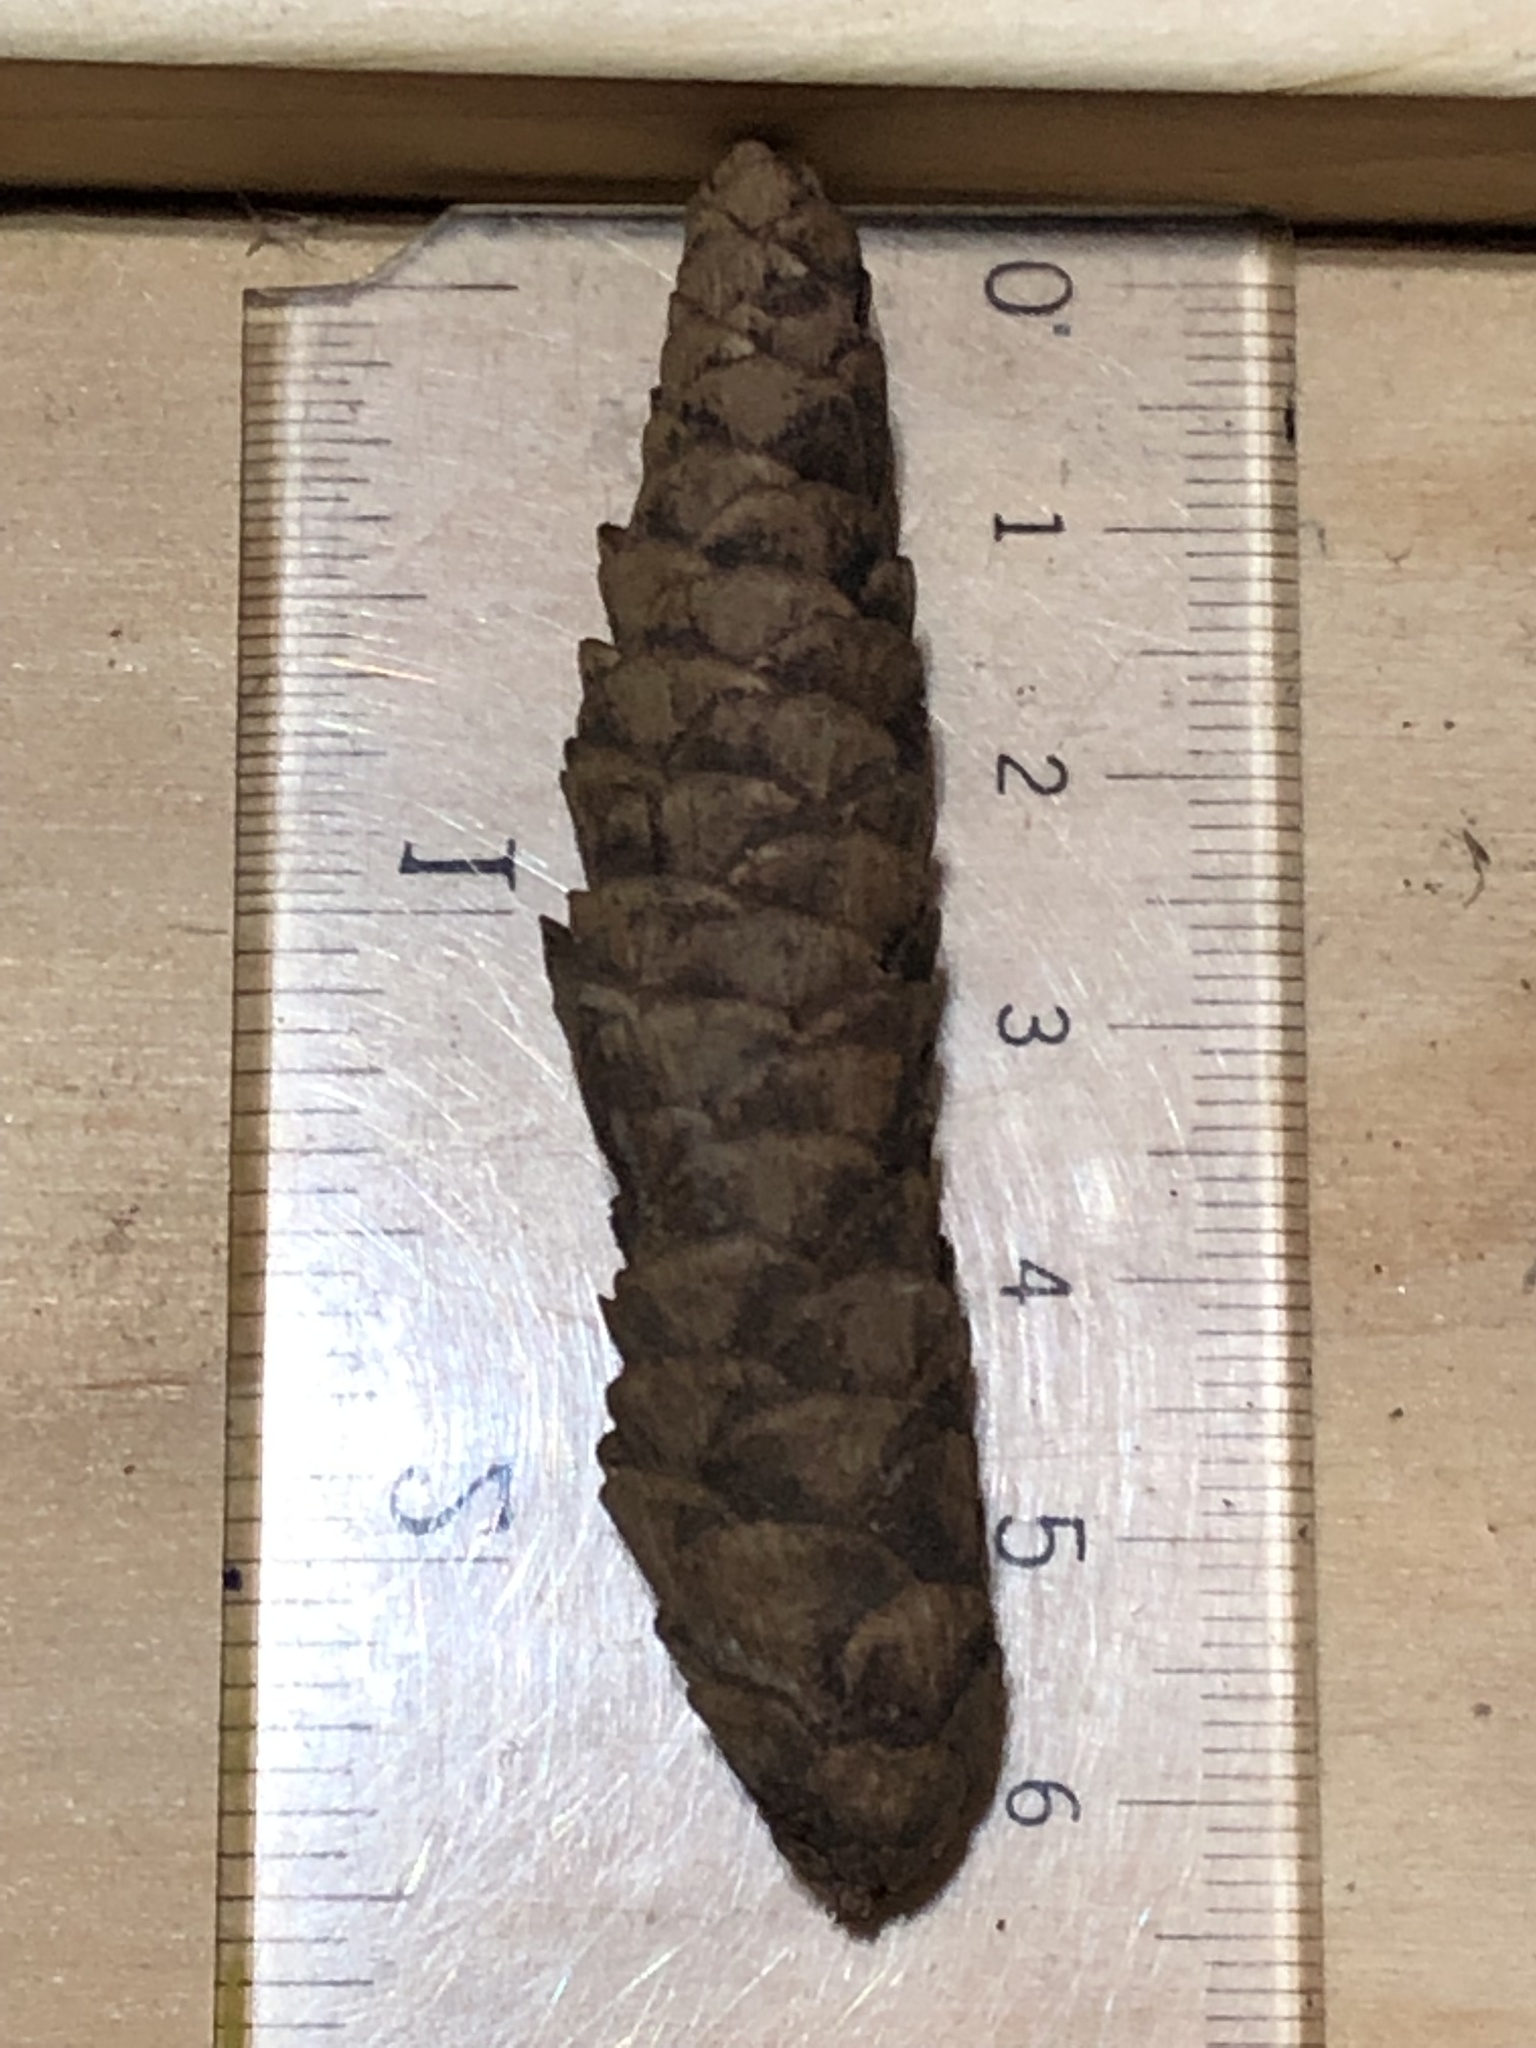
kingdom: Plantae
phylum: Tracheophyta
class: Pinopsida
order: Pinales
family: Pinaceae
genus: Picea
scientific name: Picea glauca
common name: White spruce
